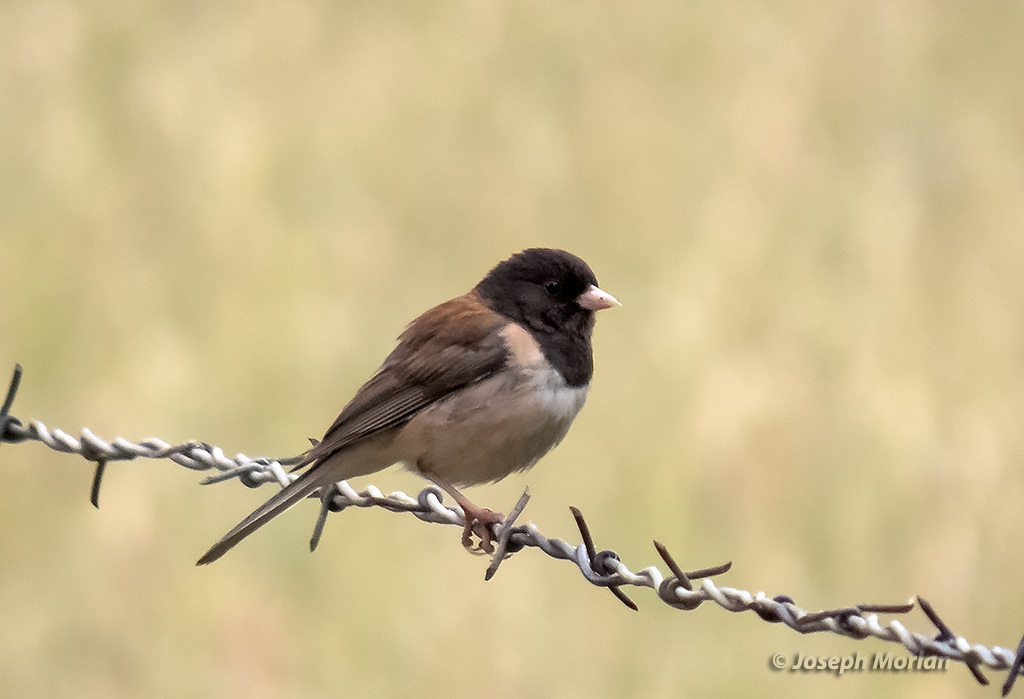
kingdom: Animalia
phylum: Chordata
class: Aves
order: Passeriformes
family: Passerellidae
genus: Junco
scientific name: Junco hyemalis
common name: Dark-eyed junco
